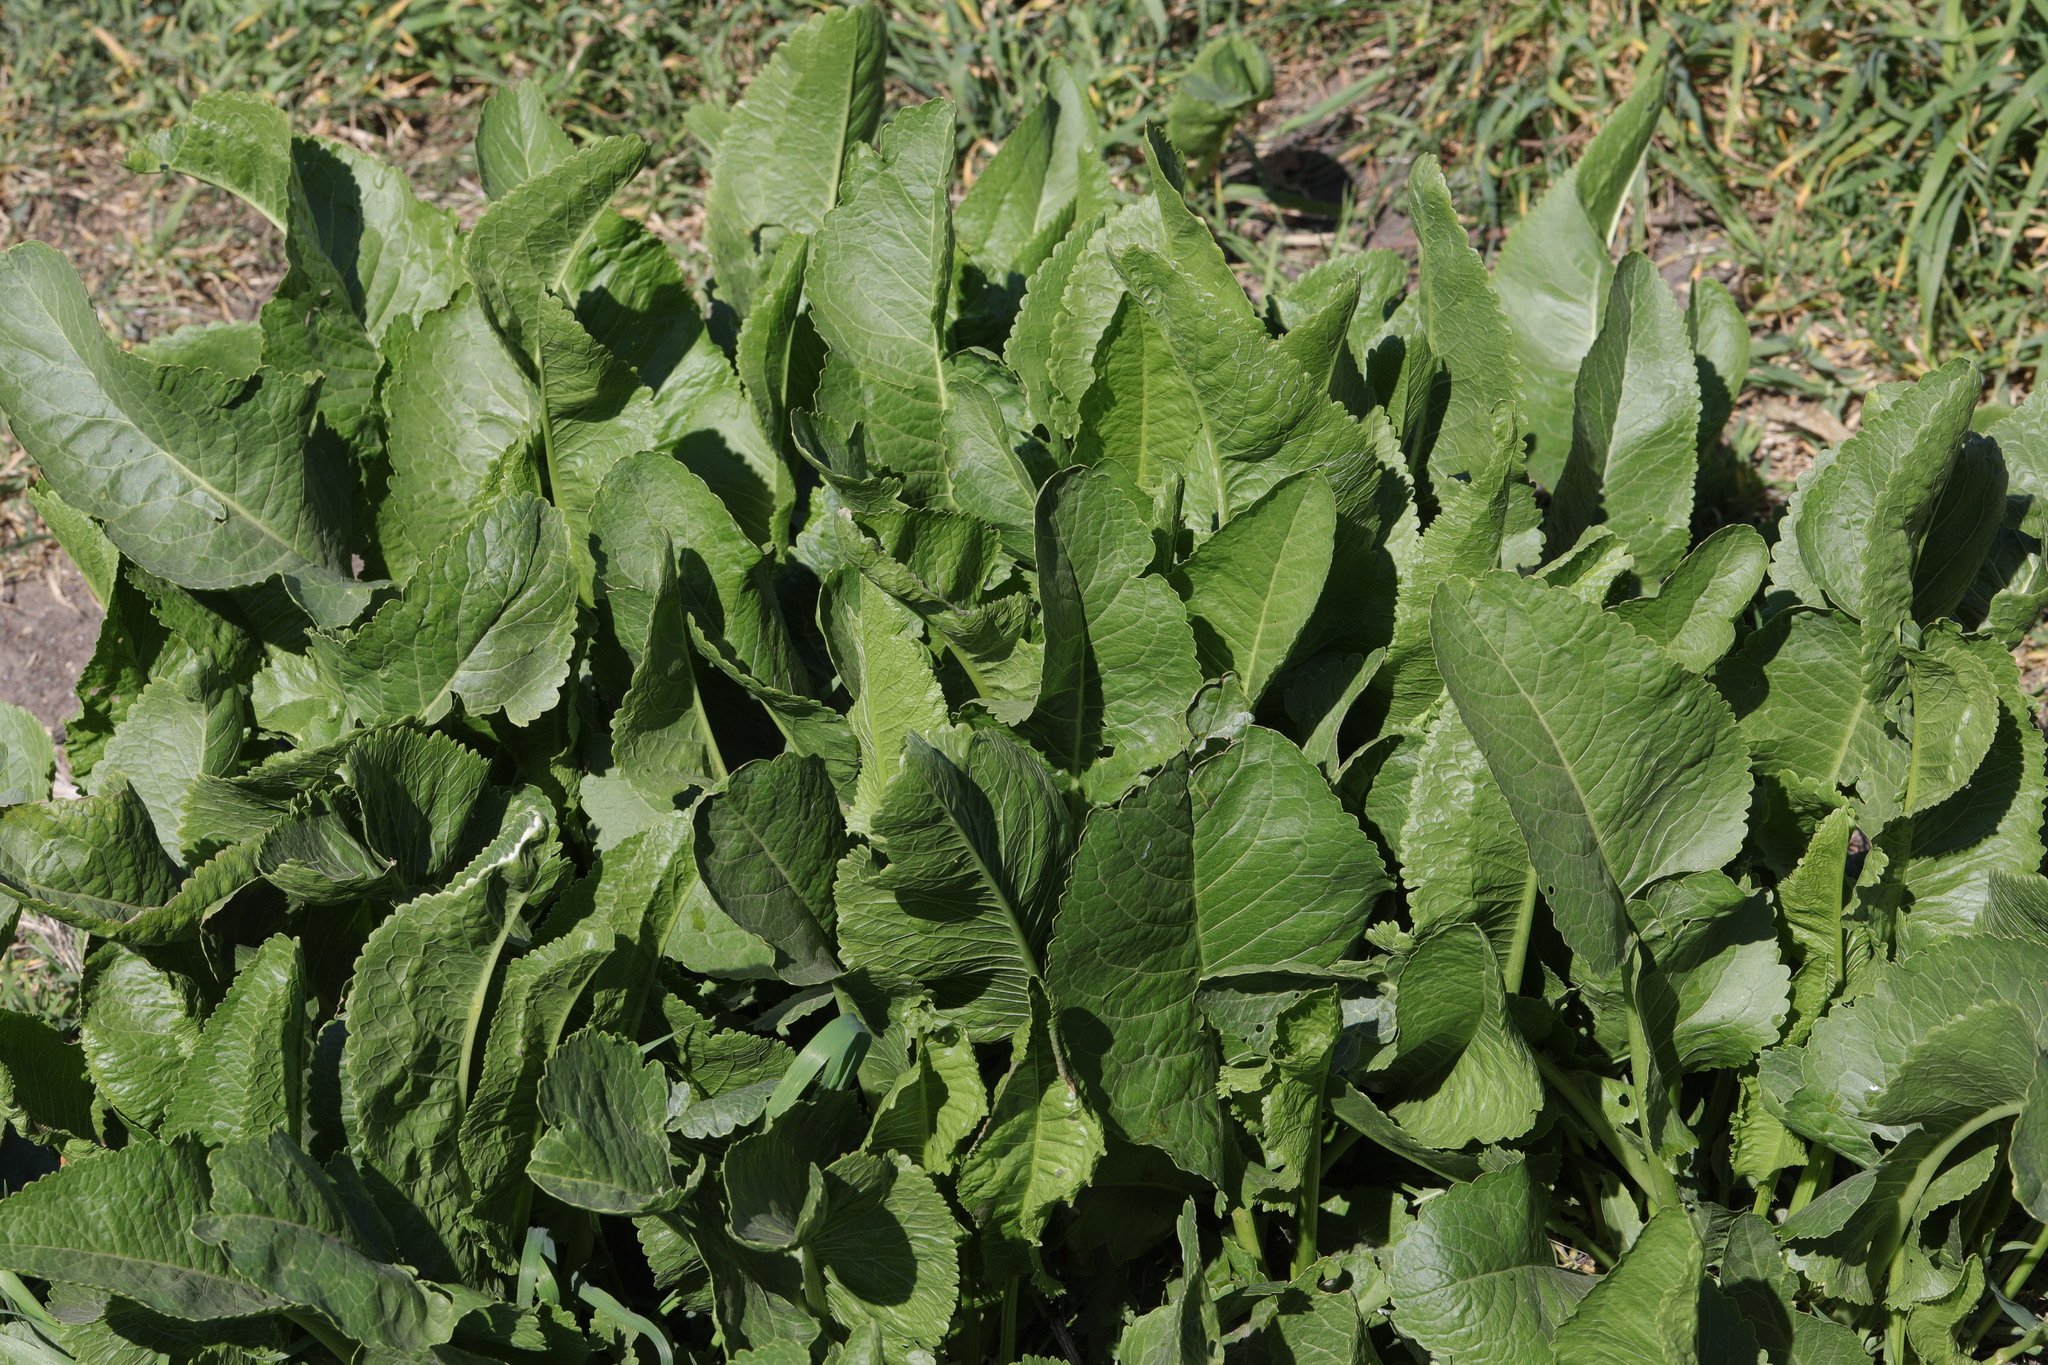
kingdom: Plantae
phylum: Tracheophyta
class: Magnoliopsida
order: Brassicales
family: Brassicaceae
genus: Armoracia
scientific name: Armoracia rusticana
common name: Horseradish
